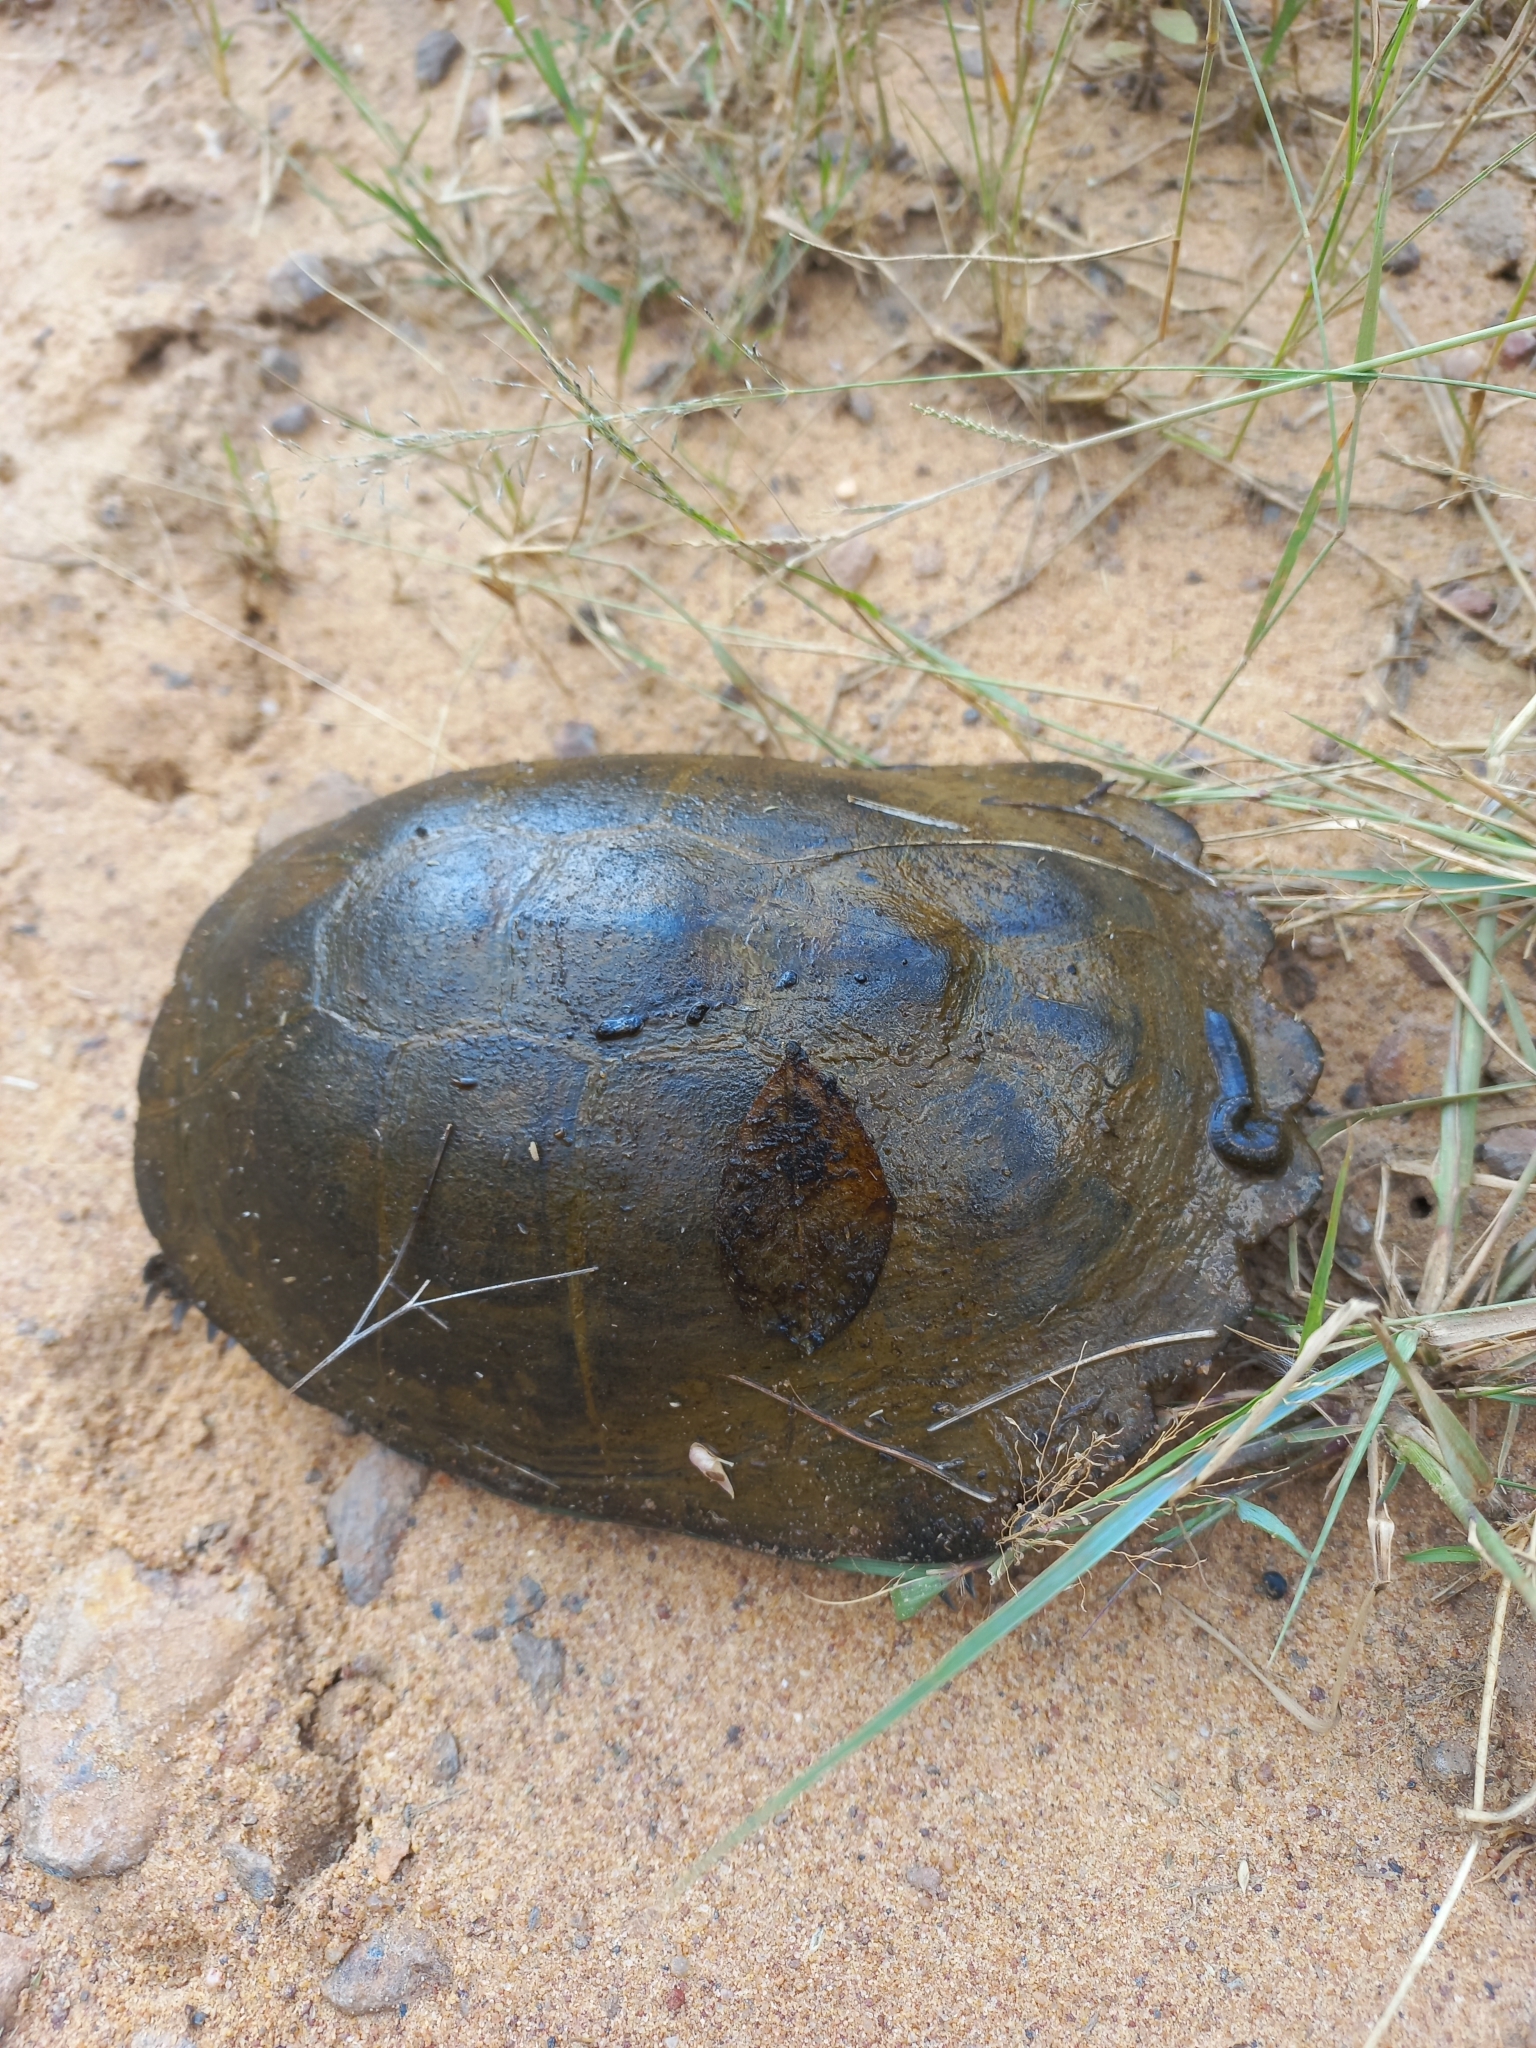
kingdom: Animalia
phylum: Chordata
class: Testudines
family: Pelomedusidae
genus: Pelusios
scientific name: Pelusios sinuatus
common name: Serrated hinged terrapin
